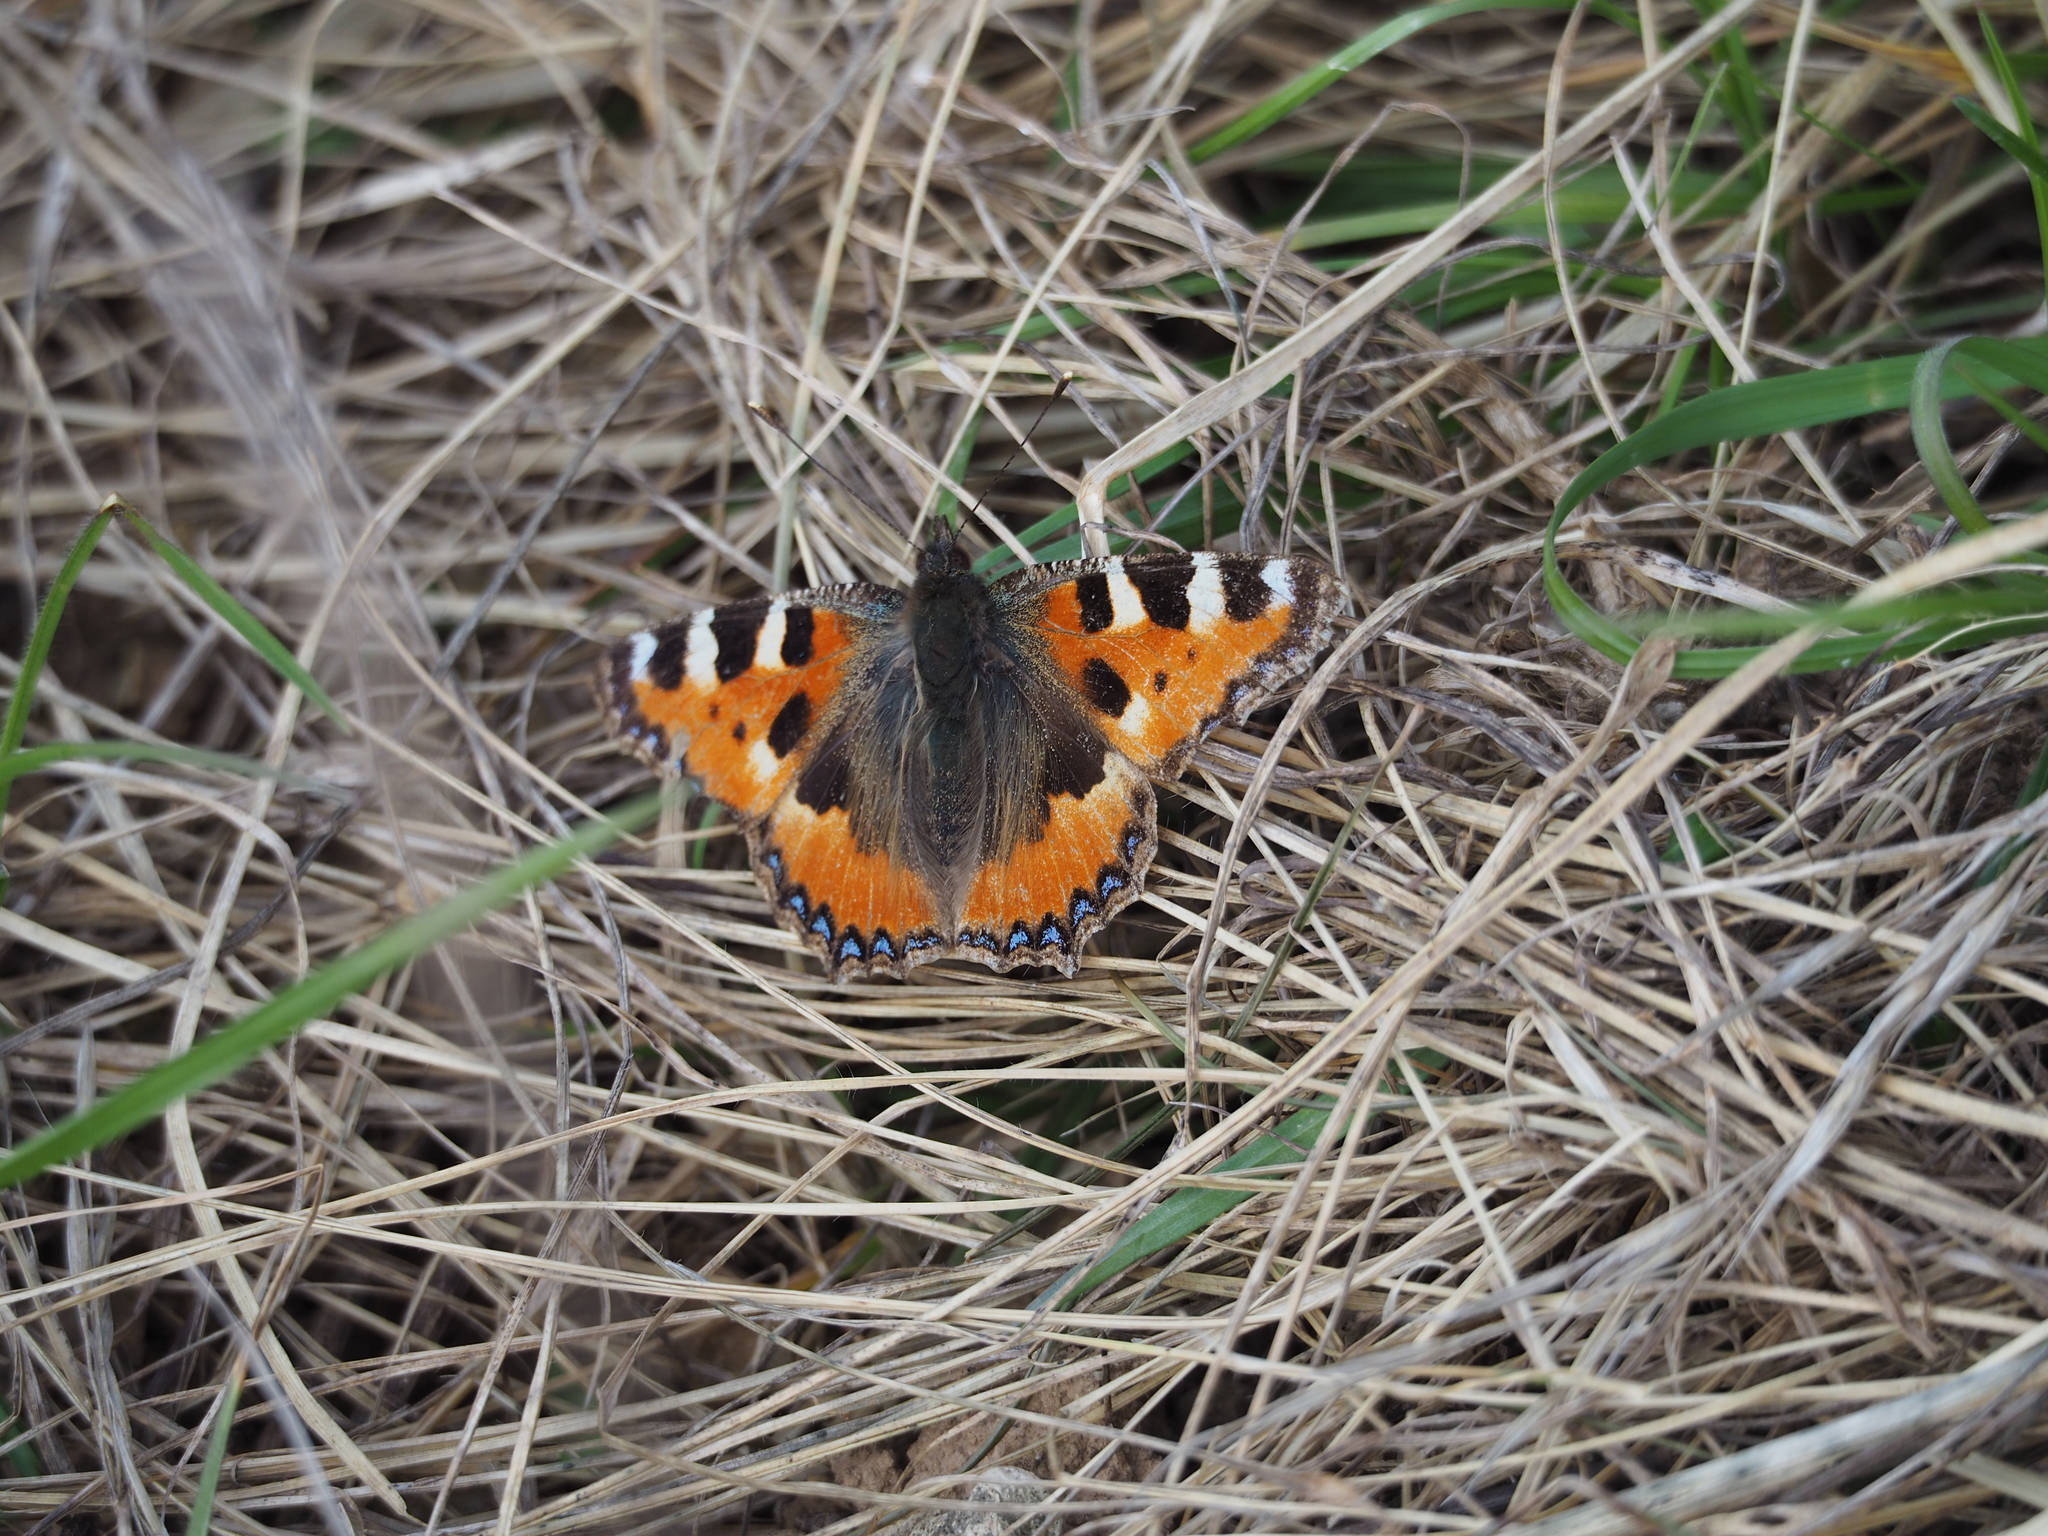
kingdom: Animalia
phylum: Arthropoda
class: Insecta
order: Lepidoptera
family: Nymphalidae
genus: Aglais
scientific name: Aglais urticae
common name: Small tortoiseshell
